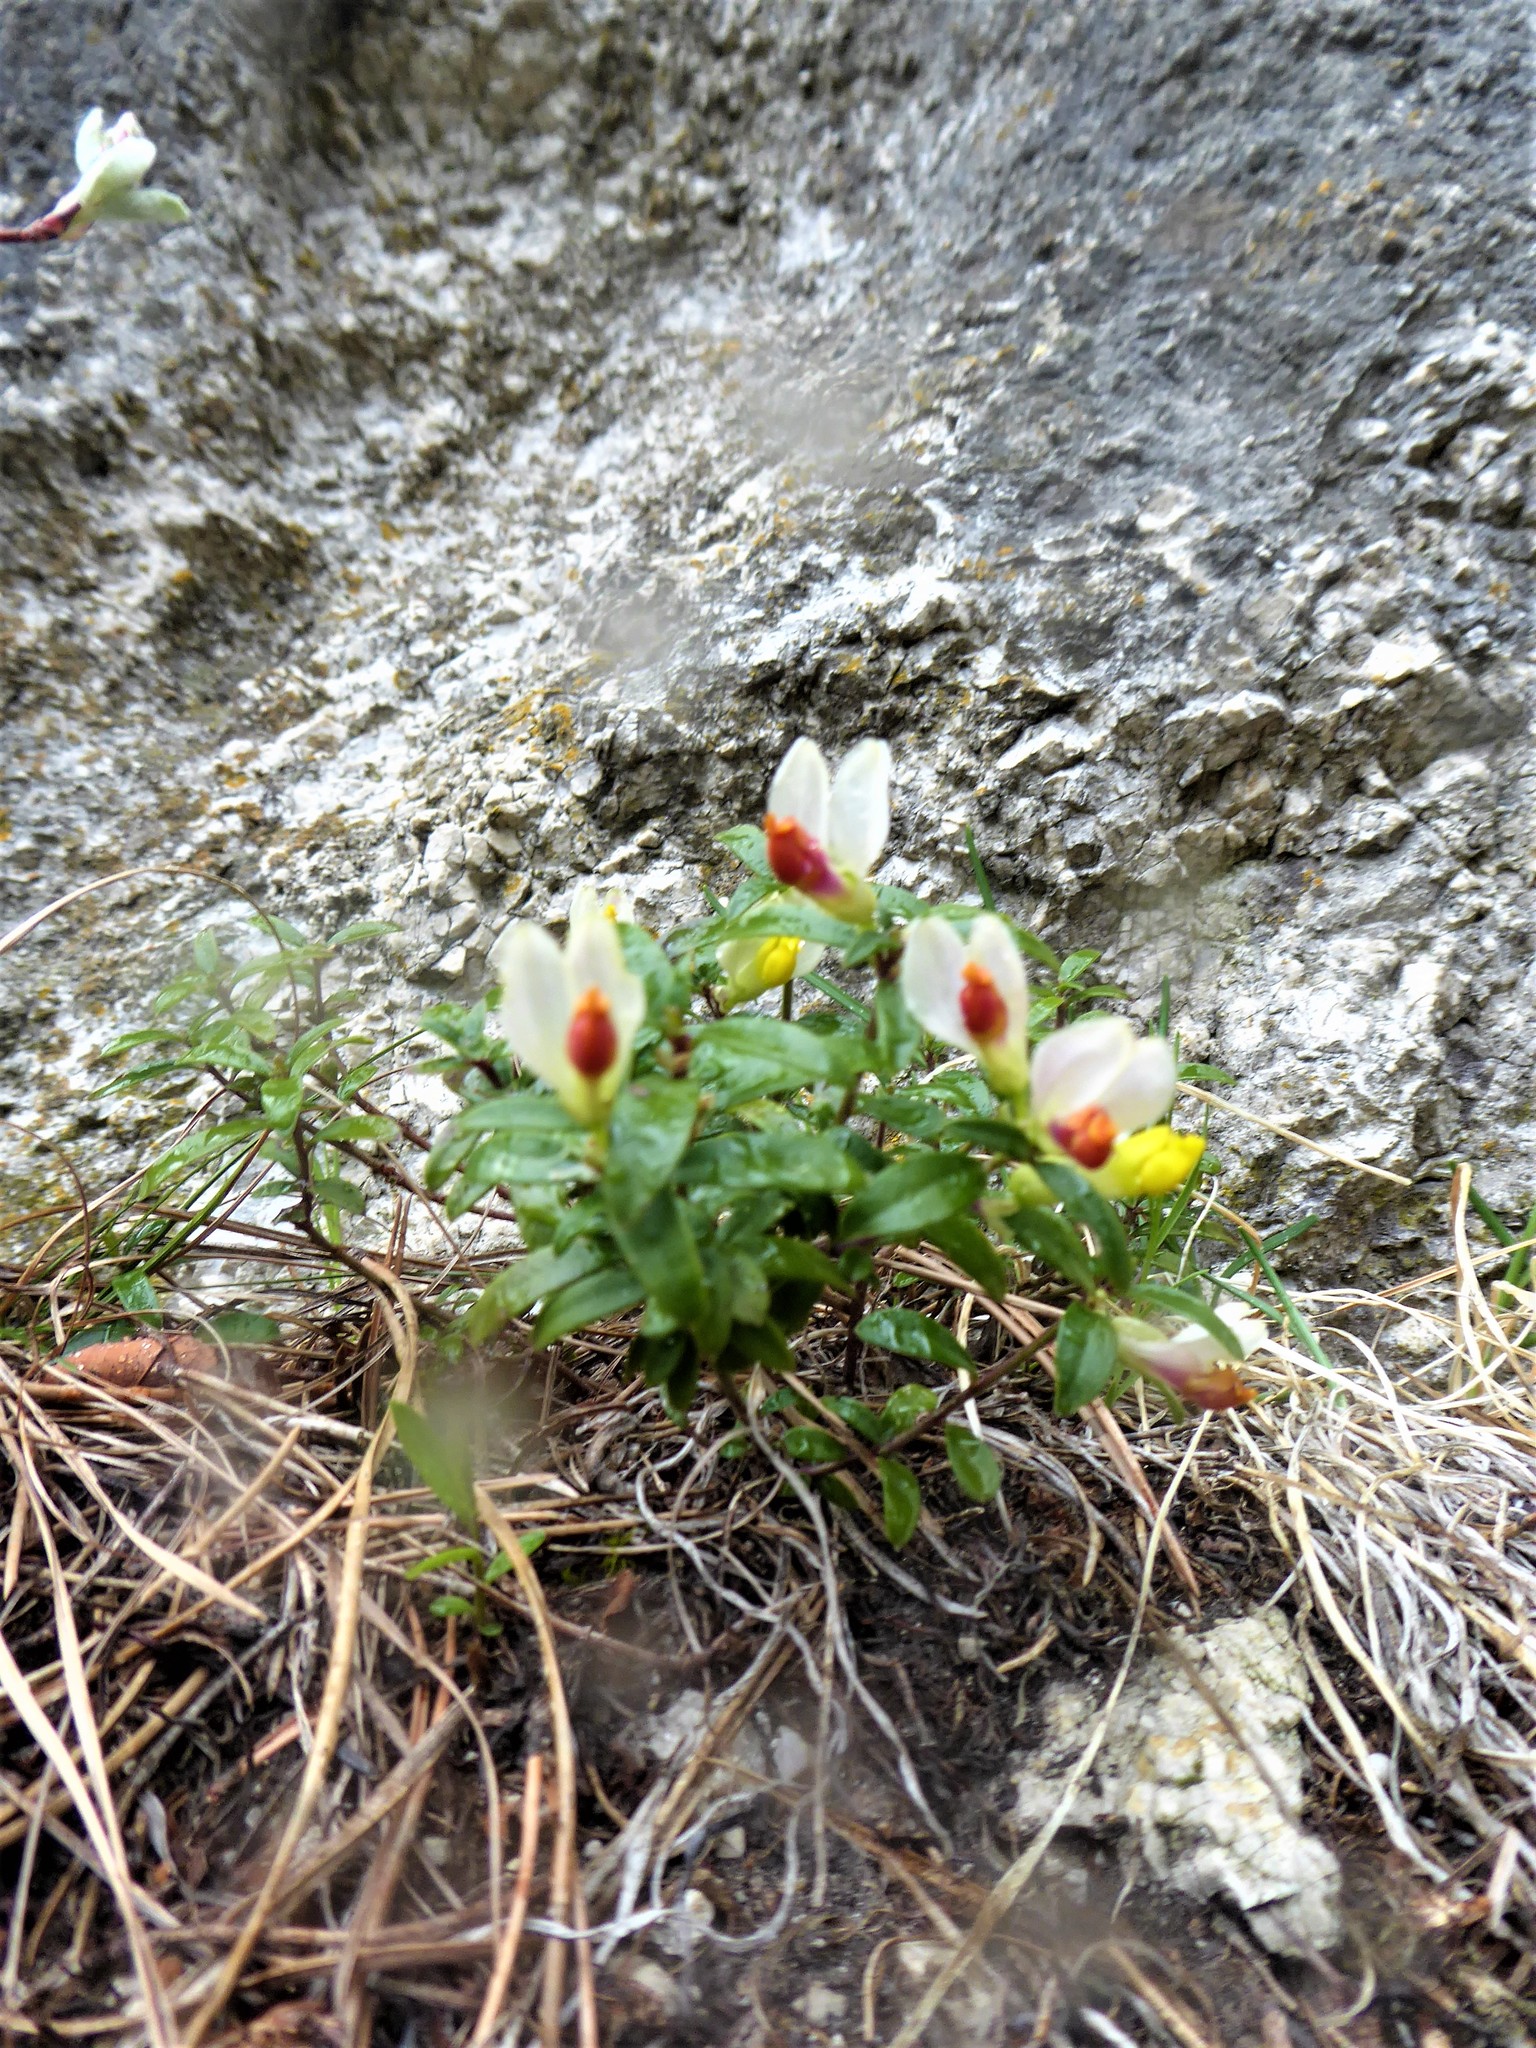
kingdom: Plantae
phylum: Tracheophyta
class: Magnoliopsida
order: Fabales
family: Polygalaceae
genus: Polygaloides
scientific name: Polygaloides chamaebuxus
